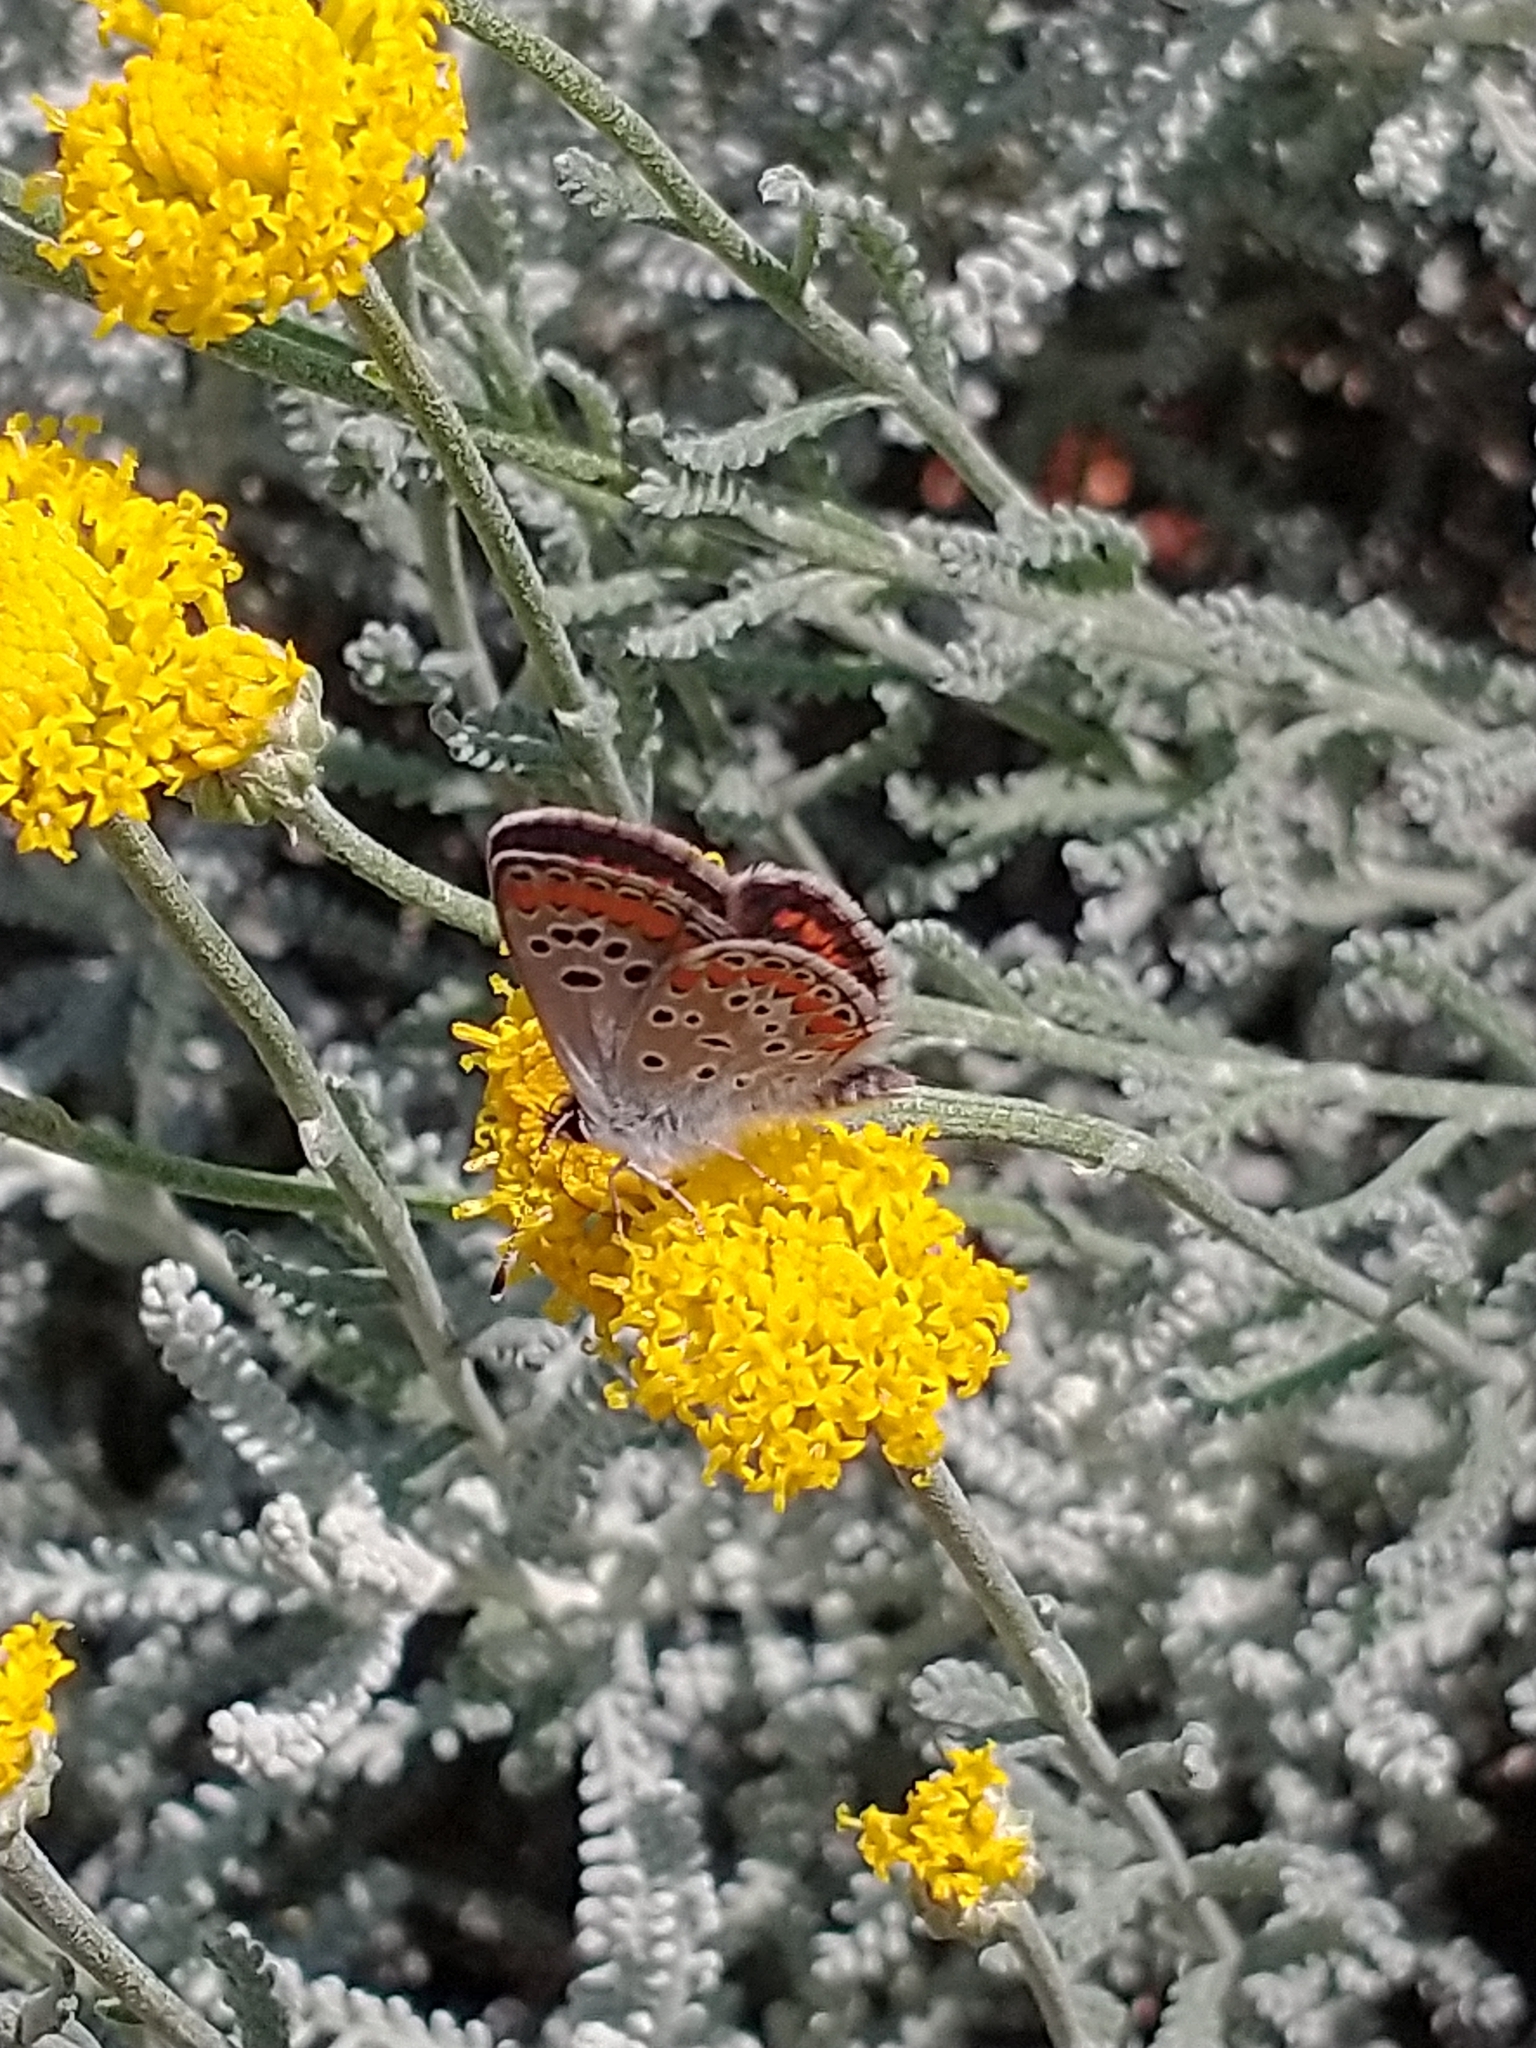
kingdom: Animalia
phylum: Arthropoda
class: Insecta
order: Lepidoptera
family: Lycaenidae
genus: Aricia
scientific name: Aricia agestis
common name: Brown argus
